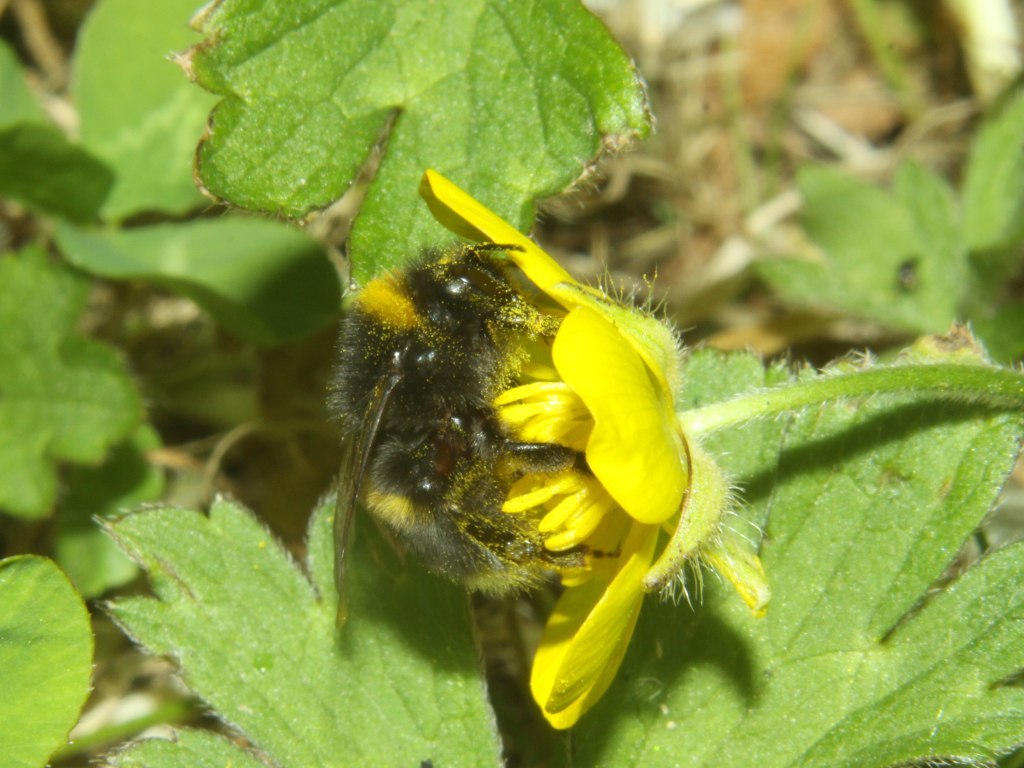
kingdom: Animalia
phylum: Arthropoda
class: Insecta
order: Hymenoptera
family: Apidae
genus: Bombus
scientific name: Bombus terrestris
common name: Buff-tailed bumblebee
